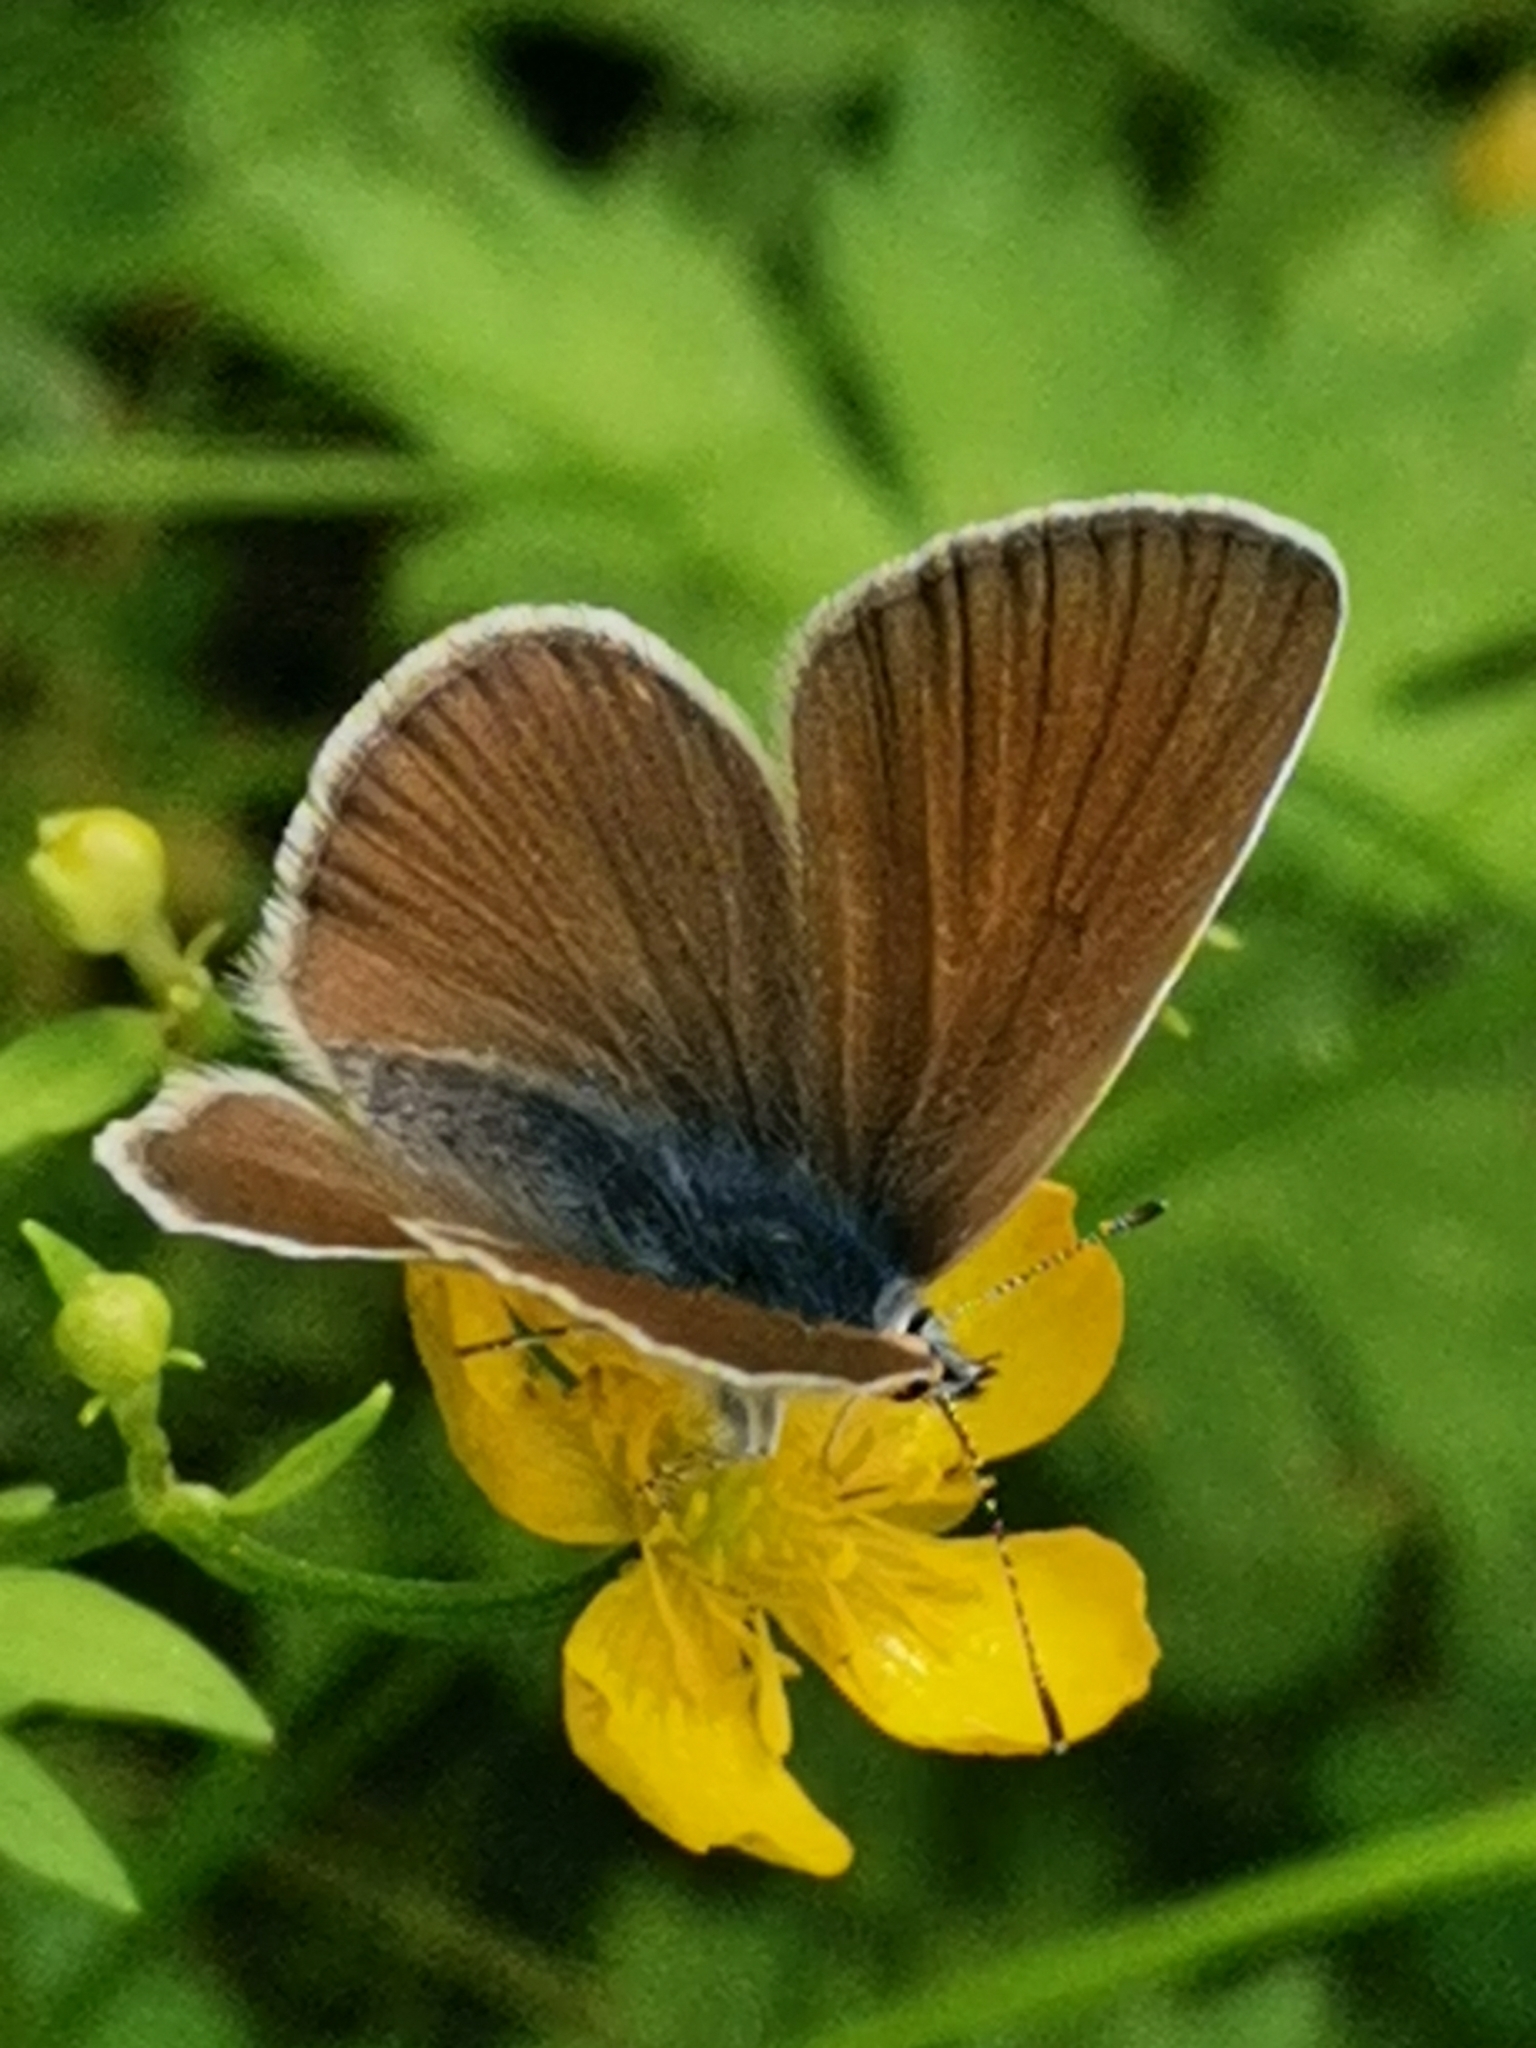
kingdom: Animalia
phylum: Arthropoda
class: Insecta
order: Lepidoptera
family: Lycaenidae
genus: Cyaniris
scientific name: Cyaniris semiargus
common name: Mazarine blue
